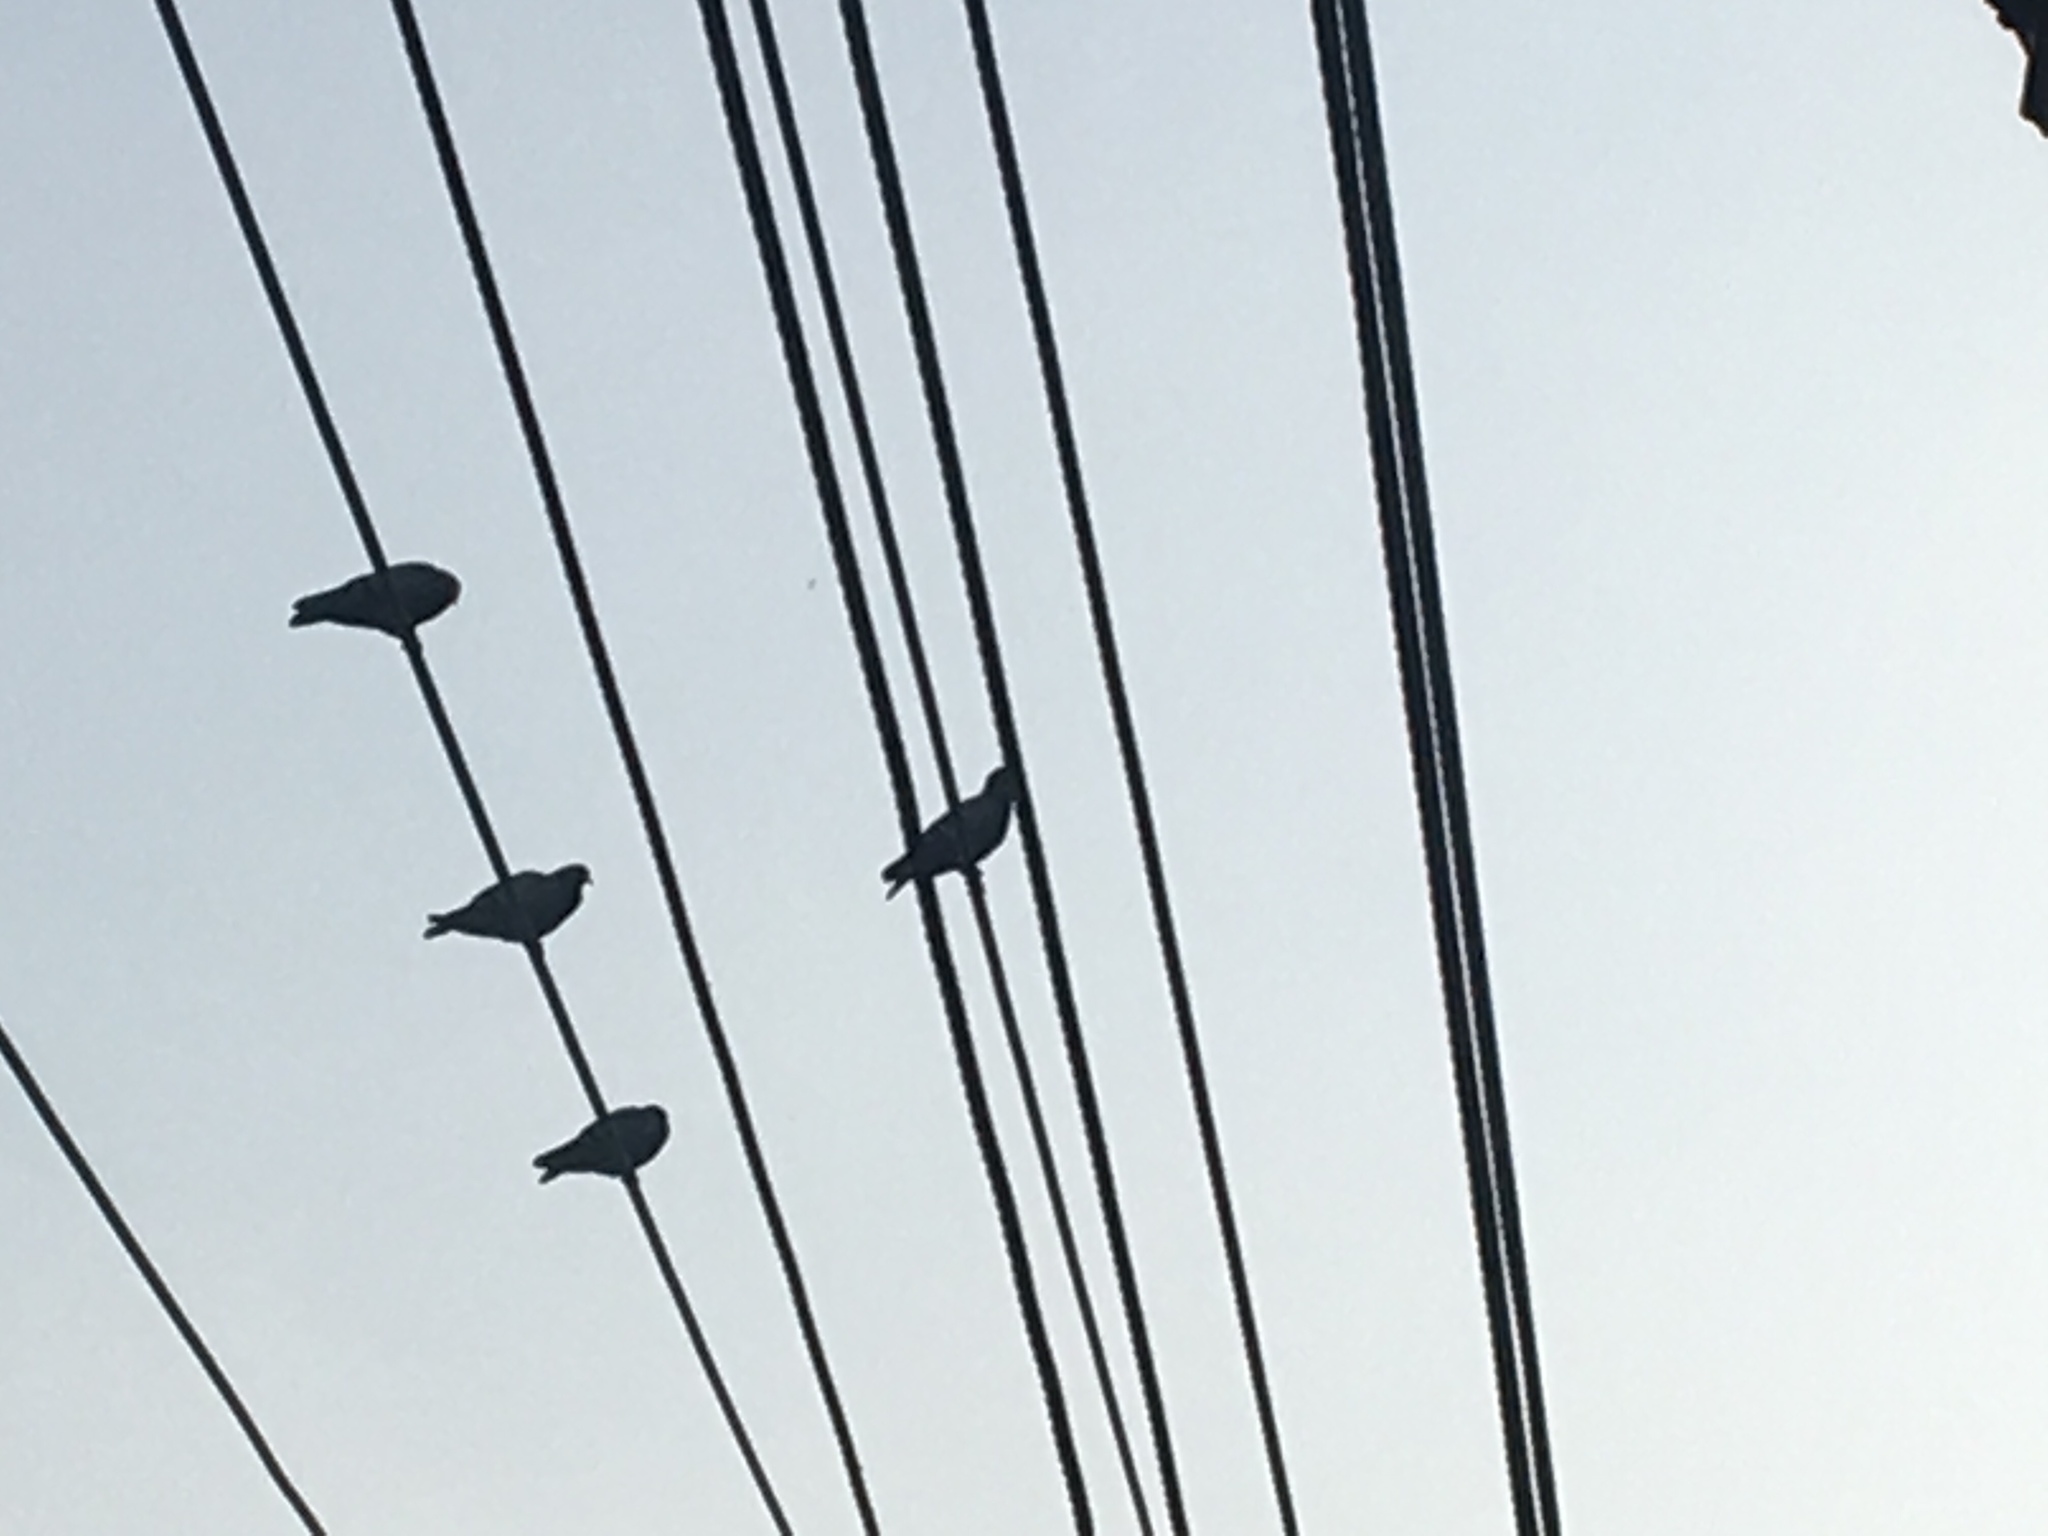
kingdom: Animalia
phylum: Chordata
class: Aves
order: Columbiformes
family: Columbidae
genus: Columba
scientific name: Columba livia
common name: Rock pigeon
